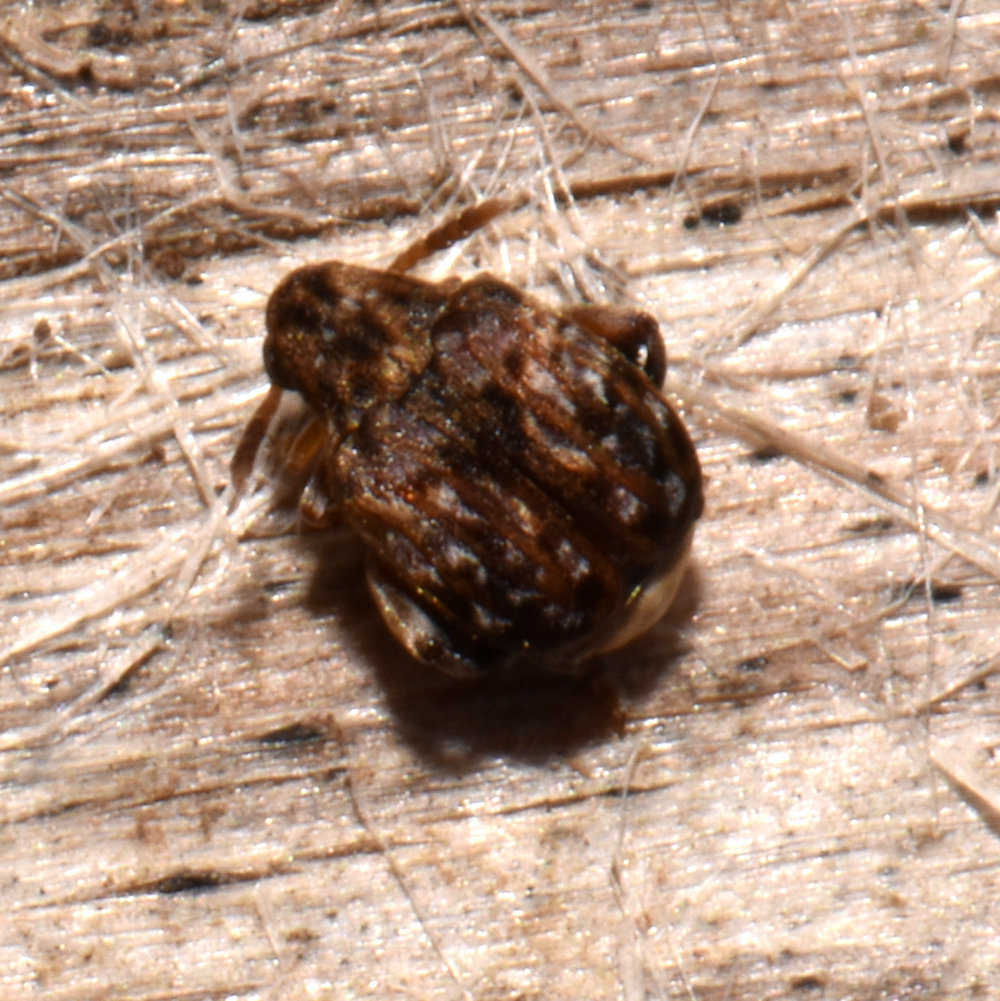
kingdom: Animalia
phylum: Arthropoda
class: Insecta
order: Coleoptera
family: Chrysomelidae
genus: Gibbobruchus
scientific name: Gibbobruchus mimus
